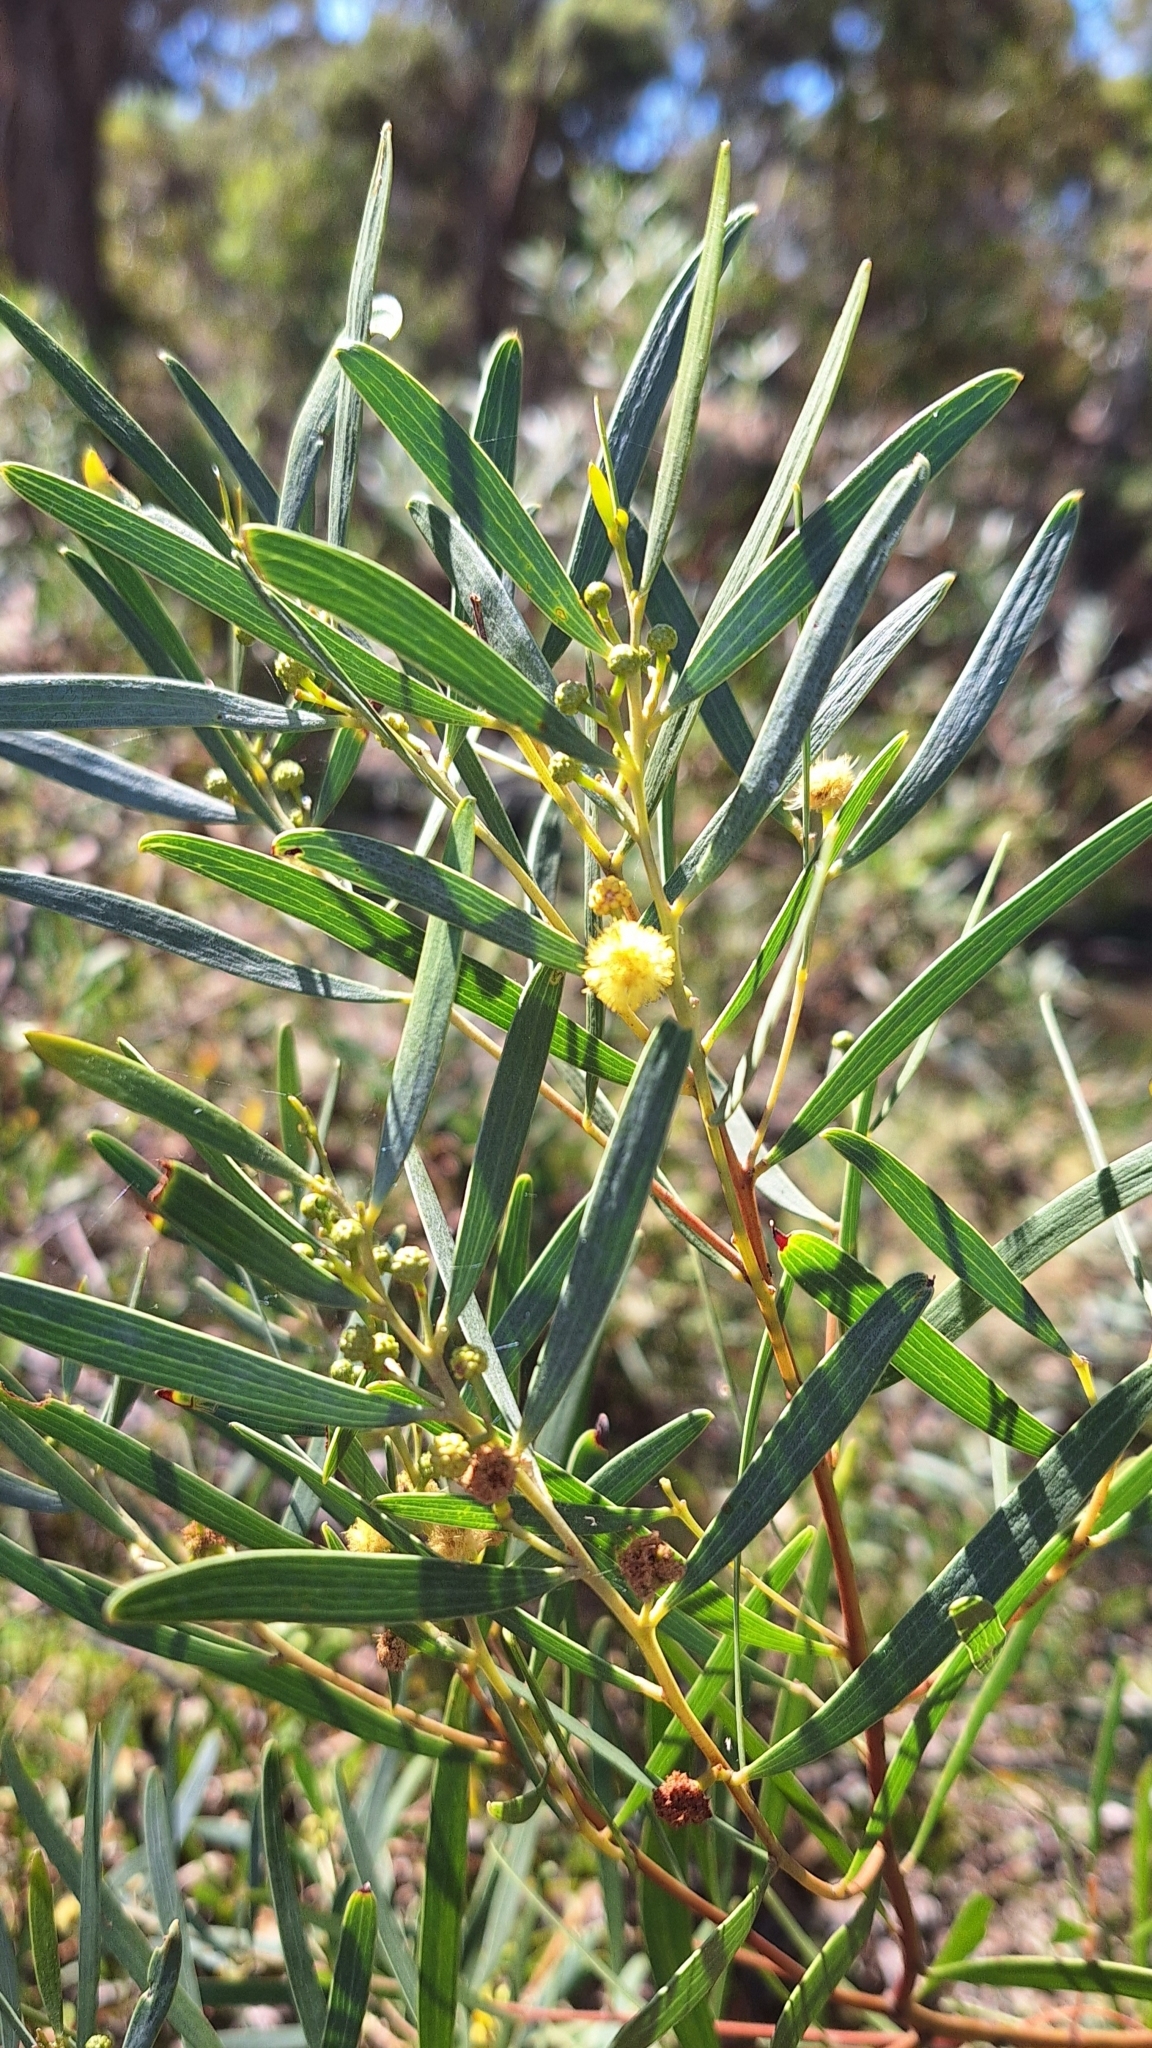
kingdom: Plantae
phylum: Tracheophyta
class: Magnoliopsida
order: Fabales
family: Fabaceae
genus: Acacia
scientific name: Acacia cyclops
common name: Coastal wattle
